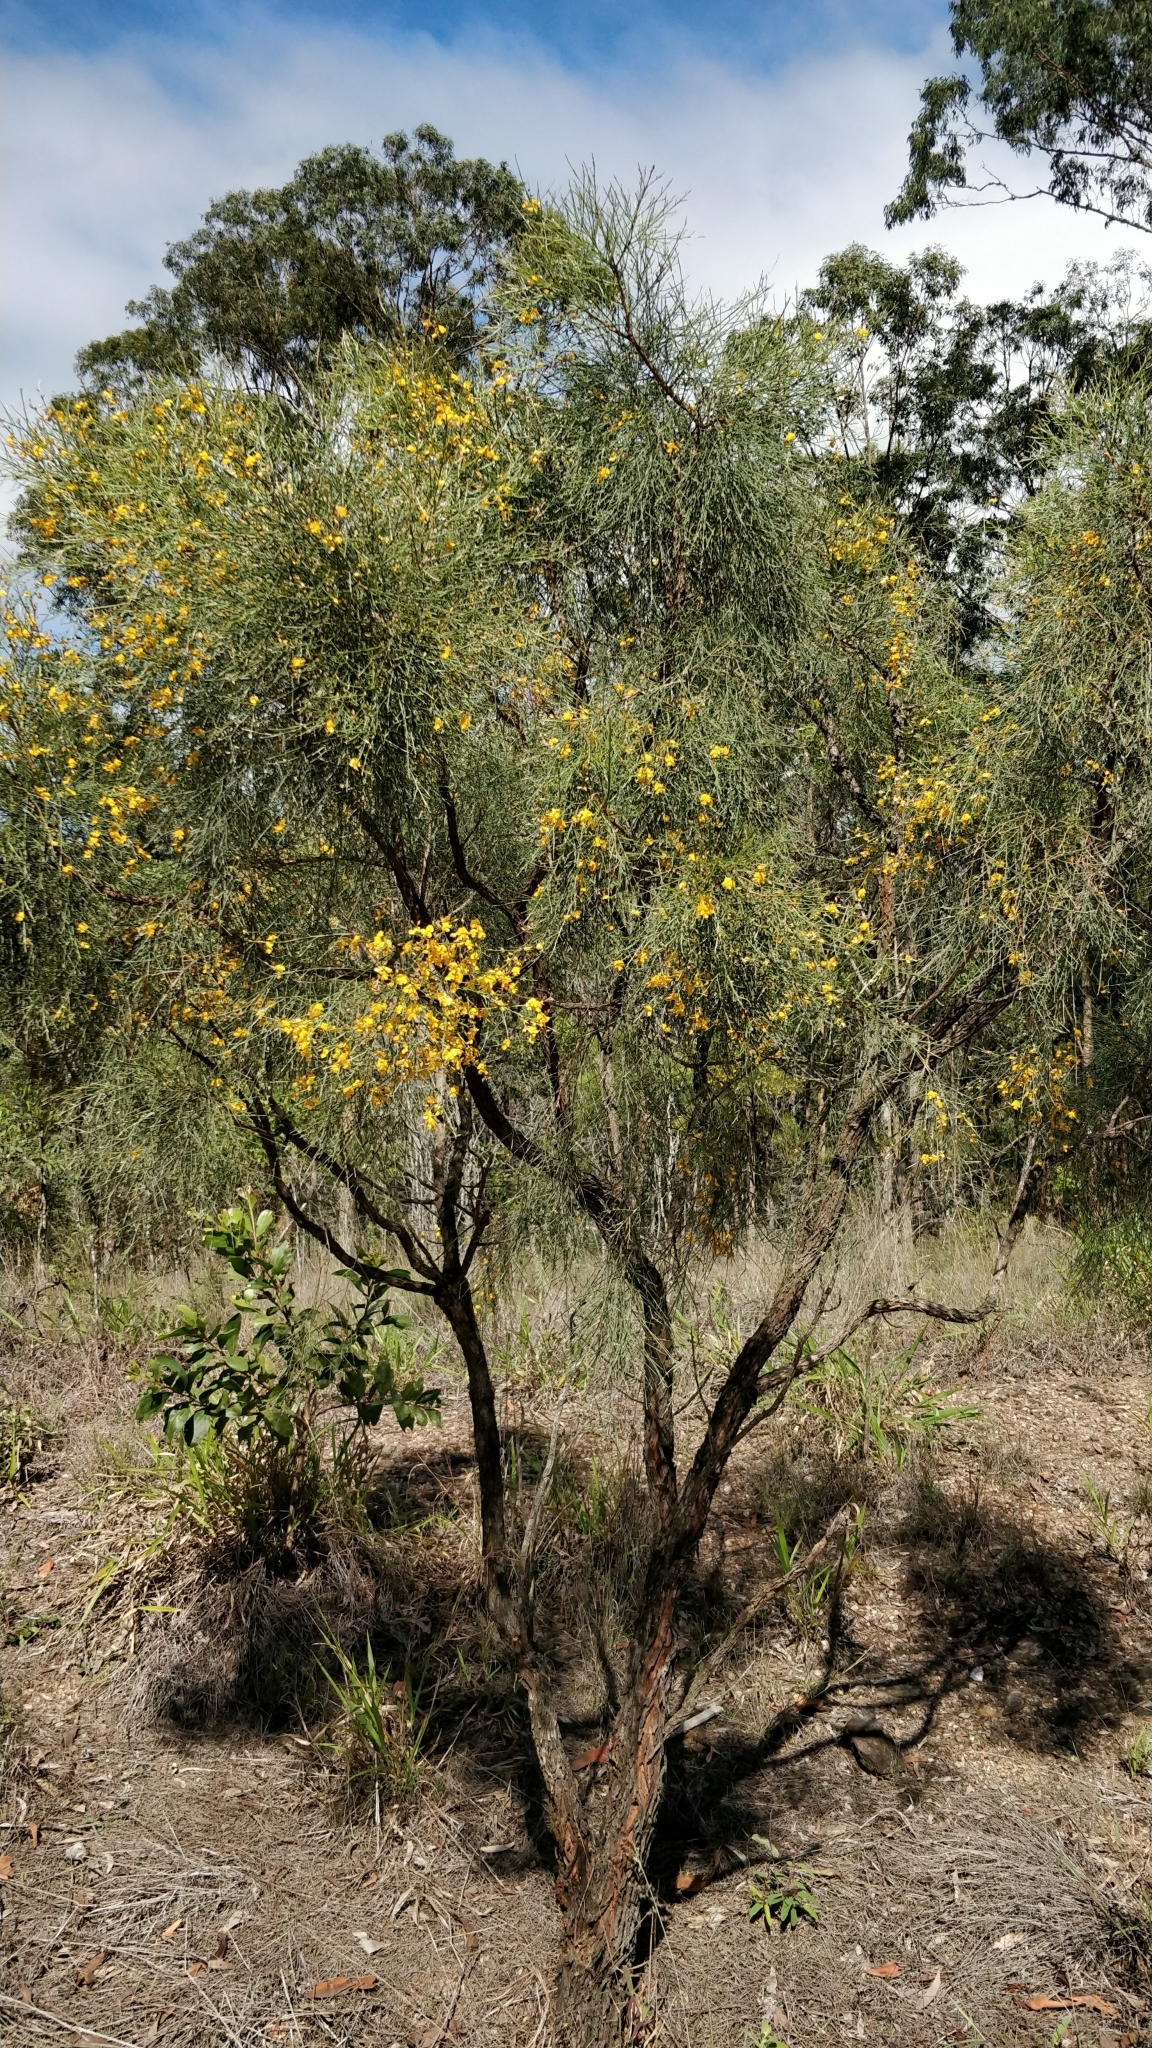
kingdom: Plantae
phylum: Tracheophyta
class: Magnoliopsida
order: Fabales
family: Fabaceae
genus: Jacksonia
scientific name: Jacksonia scoparia
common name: Dogwood
